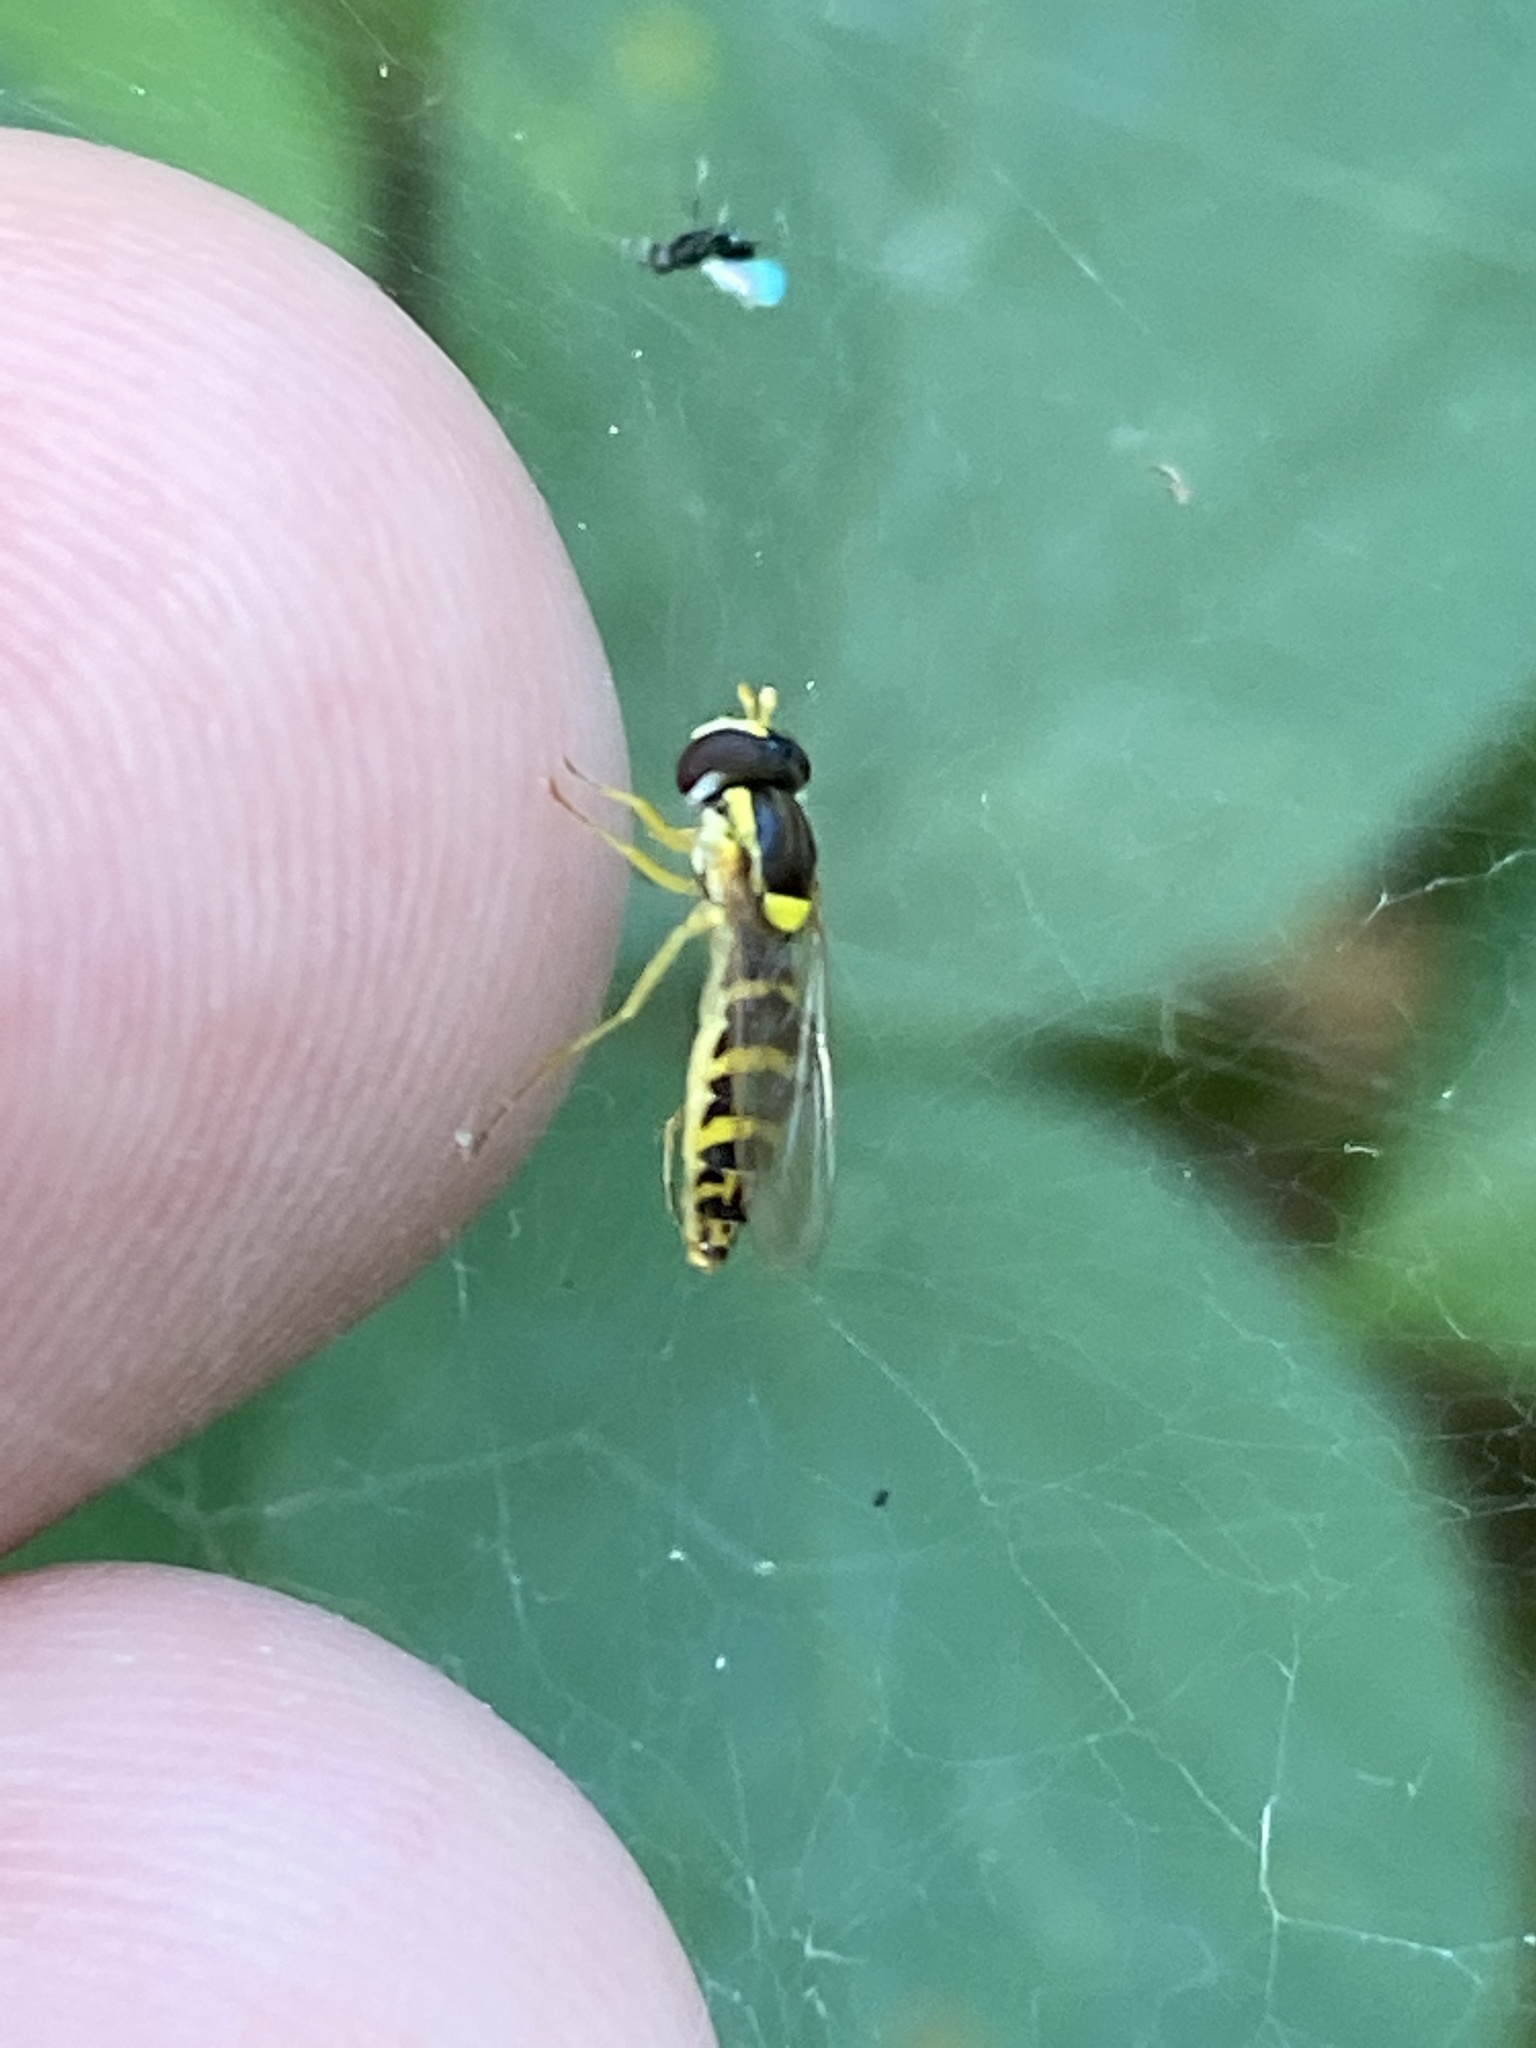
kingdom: Animalia
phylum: Arthropoda
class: Insecta
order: Diptera
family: Syrphidae
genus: Sphaerophoria
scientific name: Sphaerophoria
